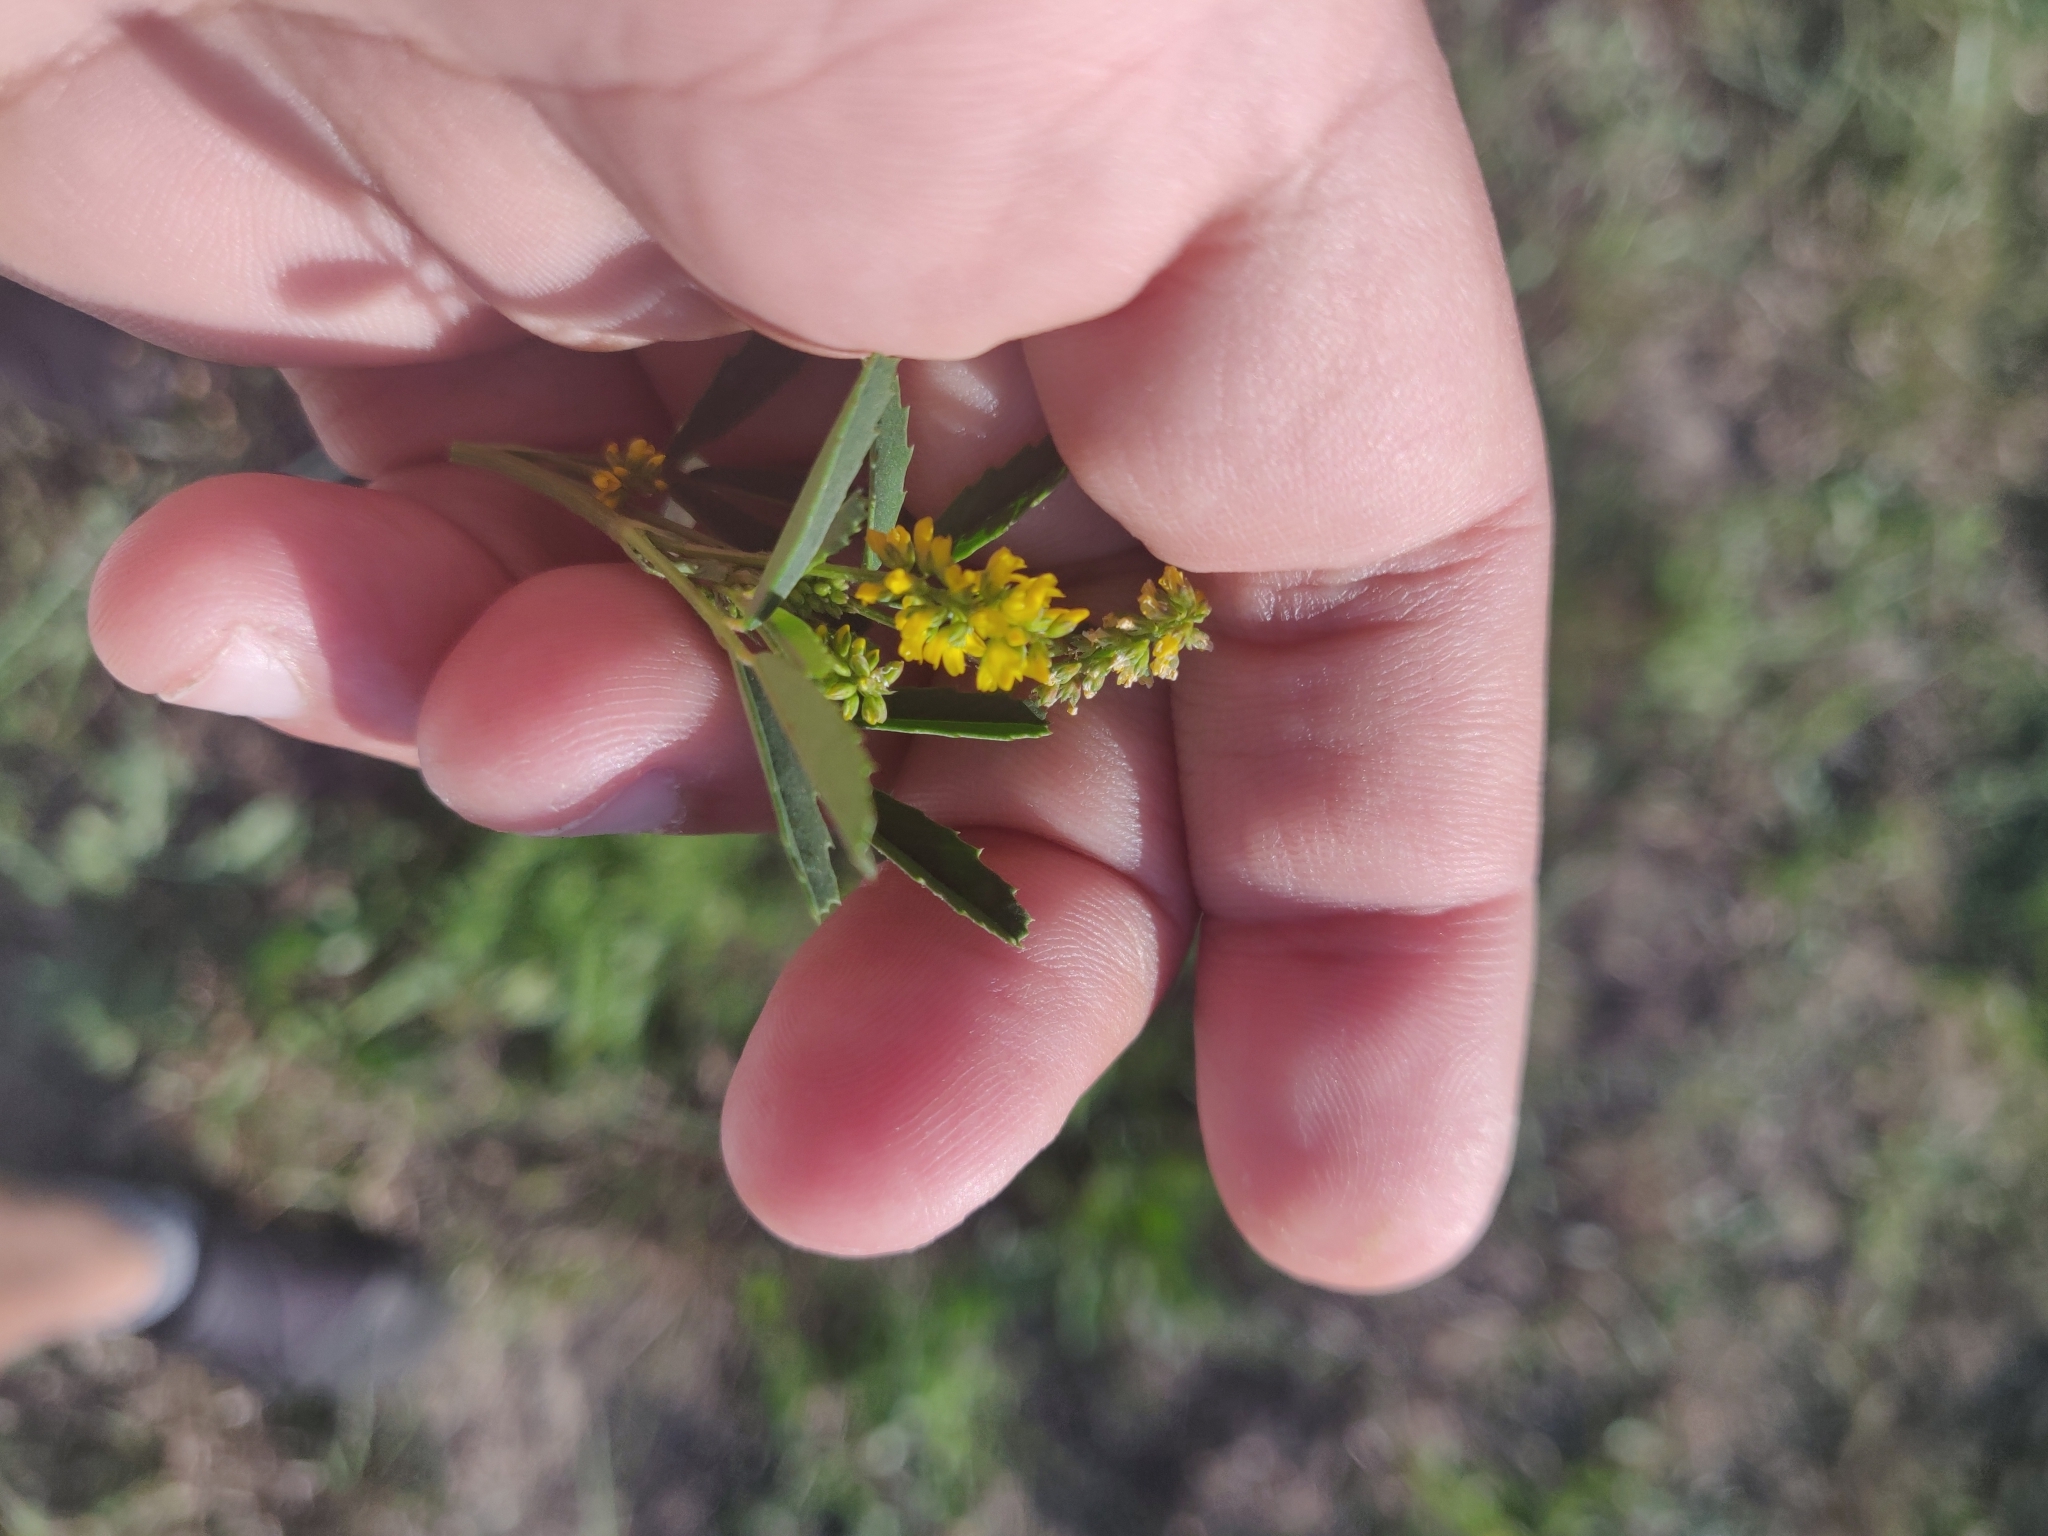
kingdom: Plantae
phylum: Tracheophyta
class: Magnoliopsida
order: Fabales
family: Fabaceae
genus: Melilotus
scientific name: Melilotus indicus
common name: Small melilot
